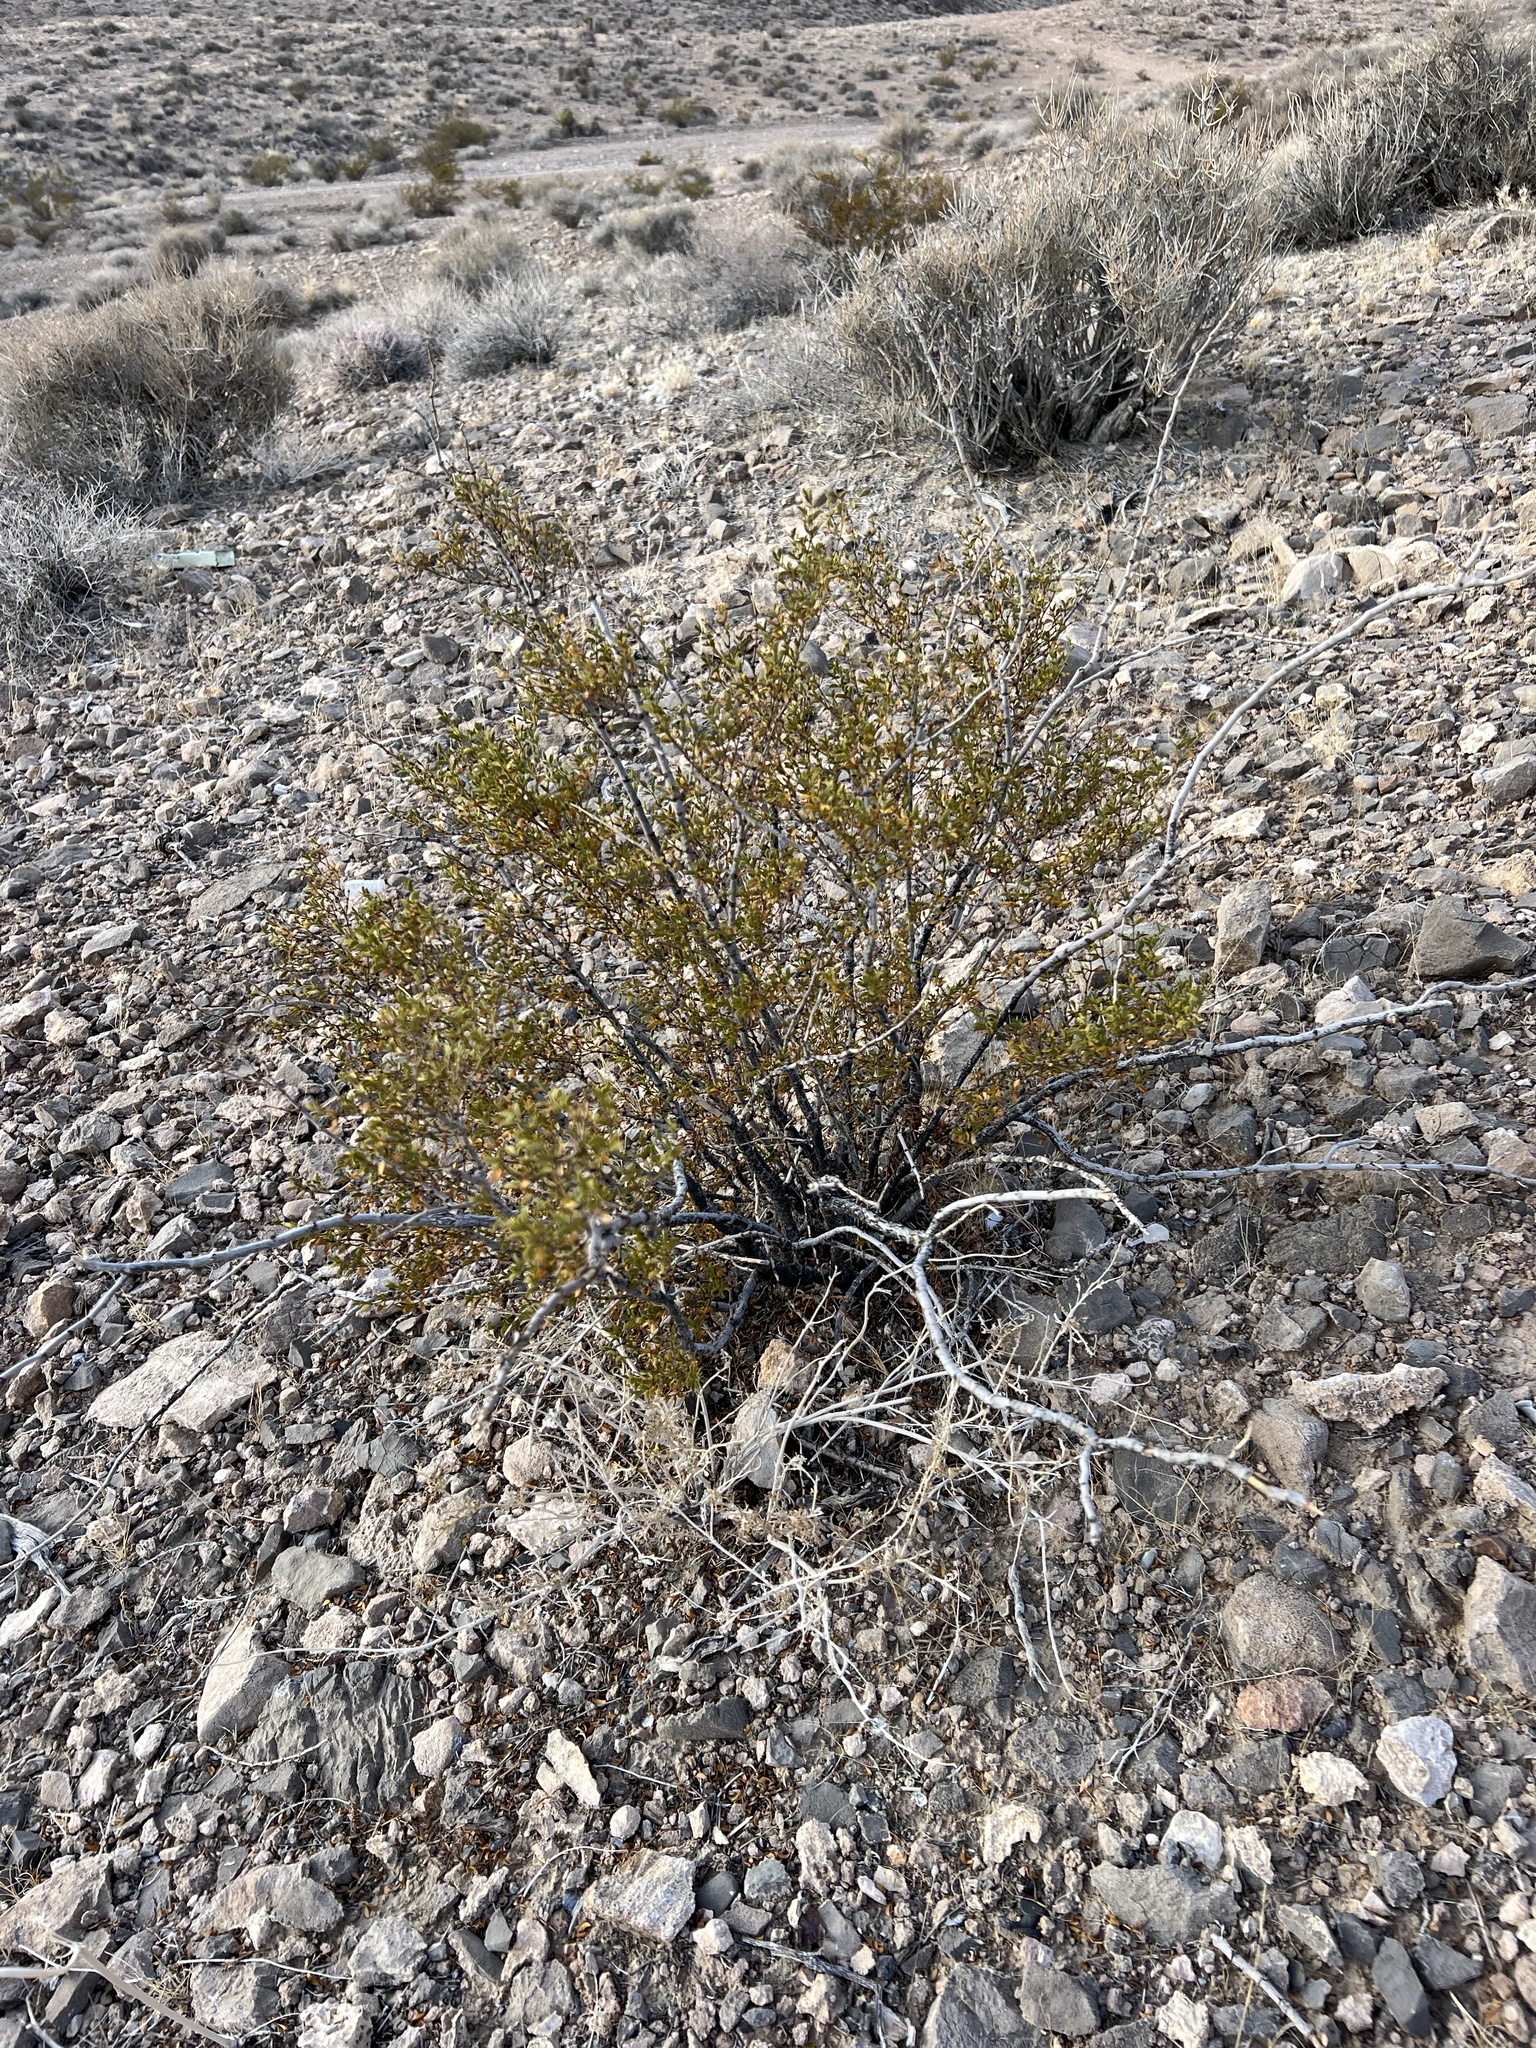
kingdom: Plantae
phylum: Tracheophyta
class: Magnoliopsida
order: Zygophyllales
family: Zygophyllaceae
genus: Larrea
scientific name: Larrea tridentata
